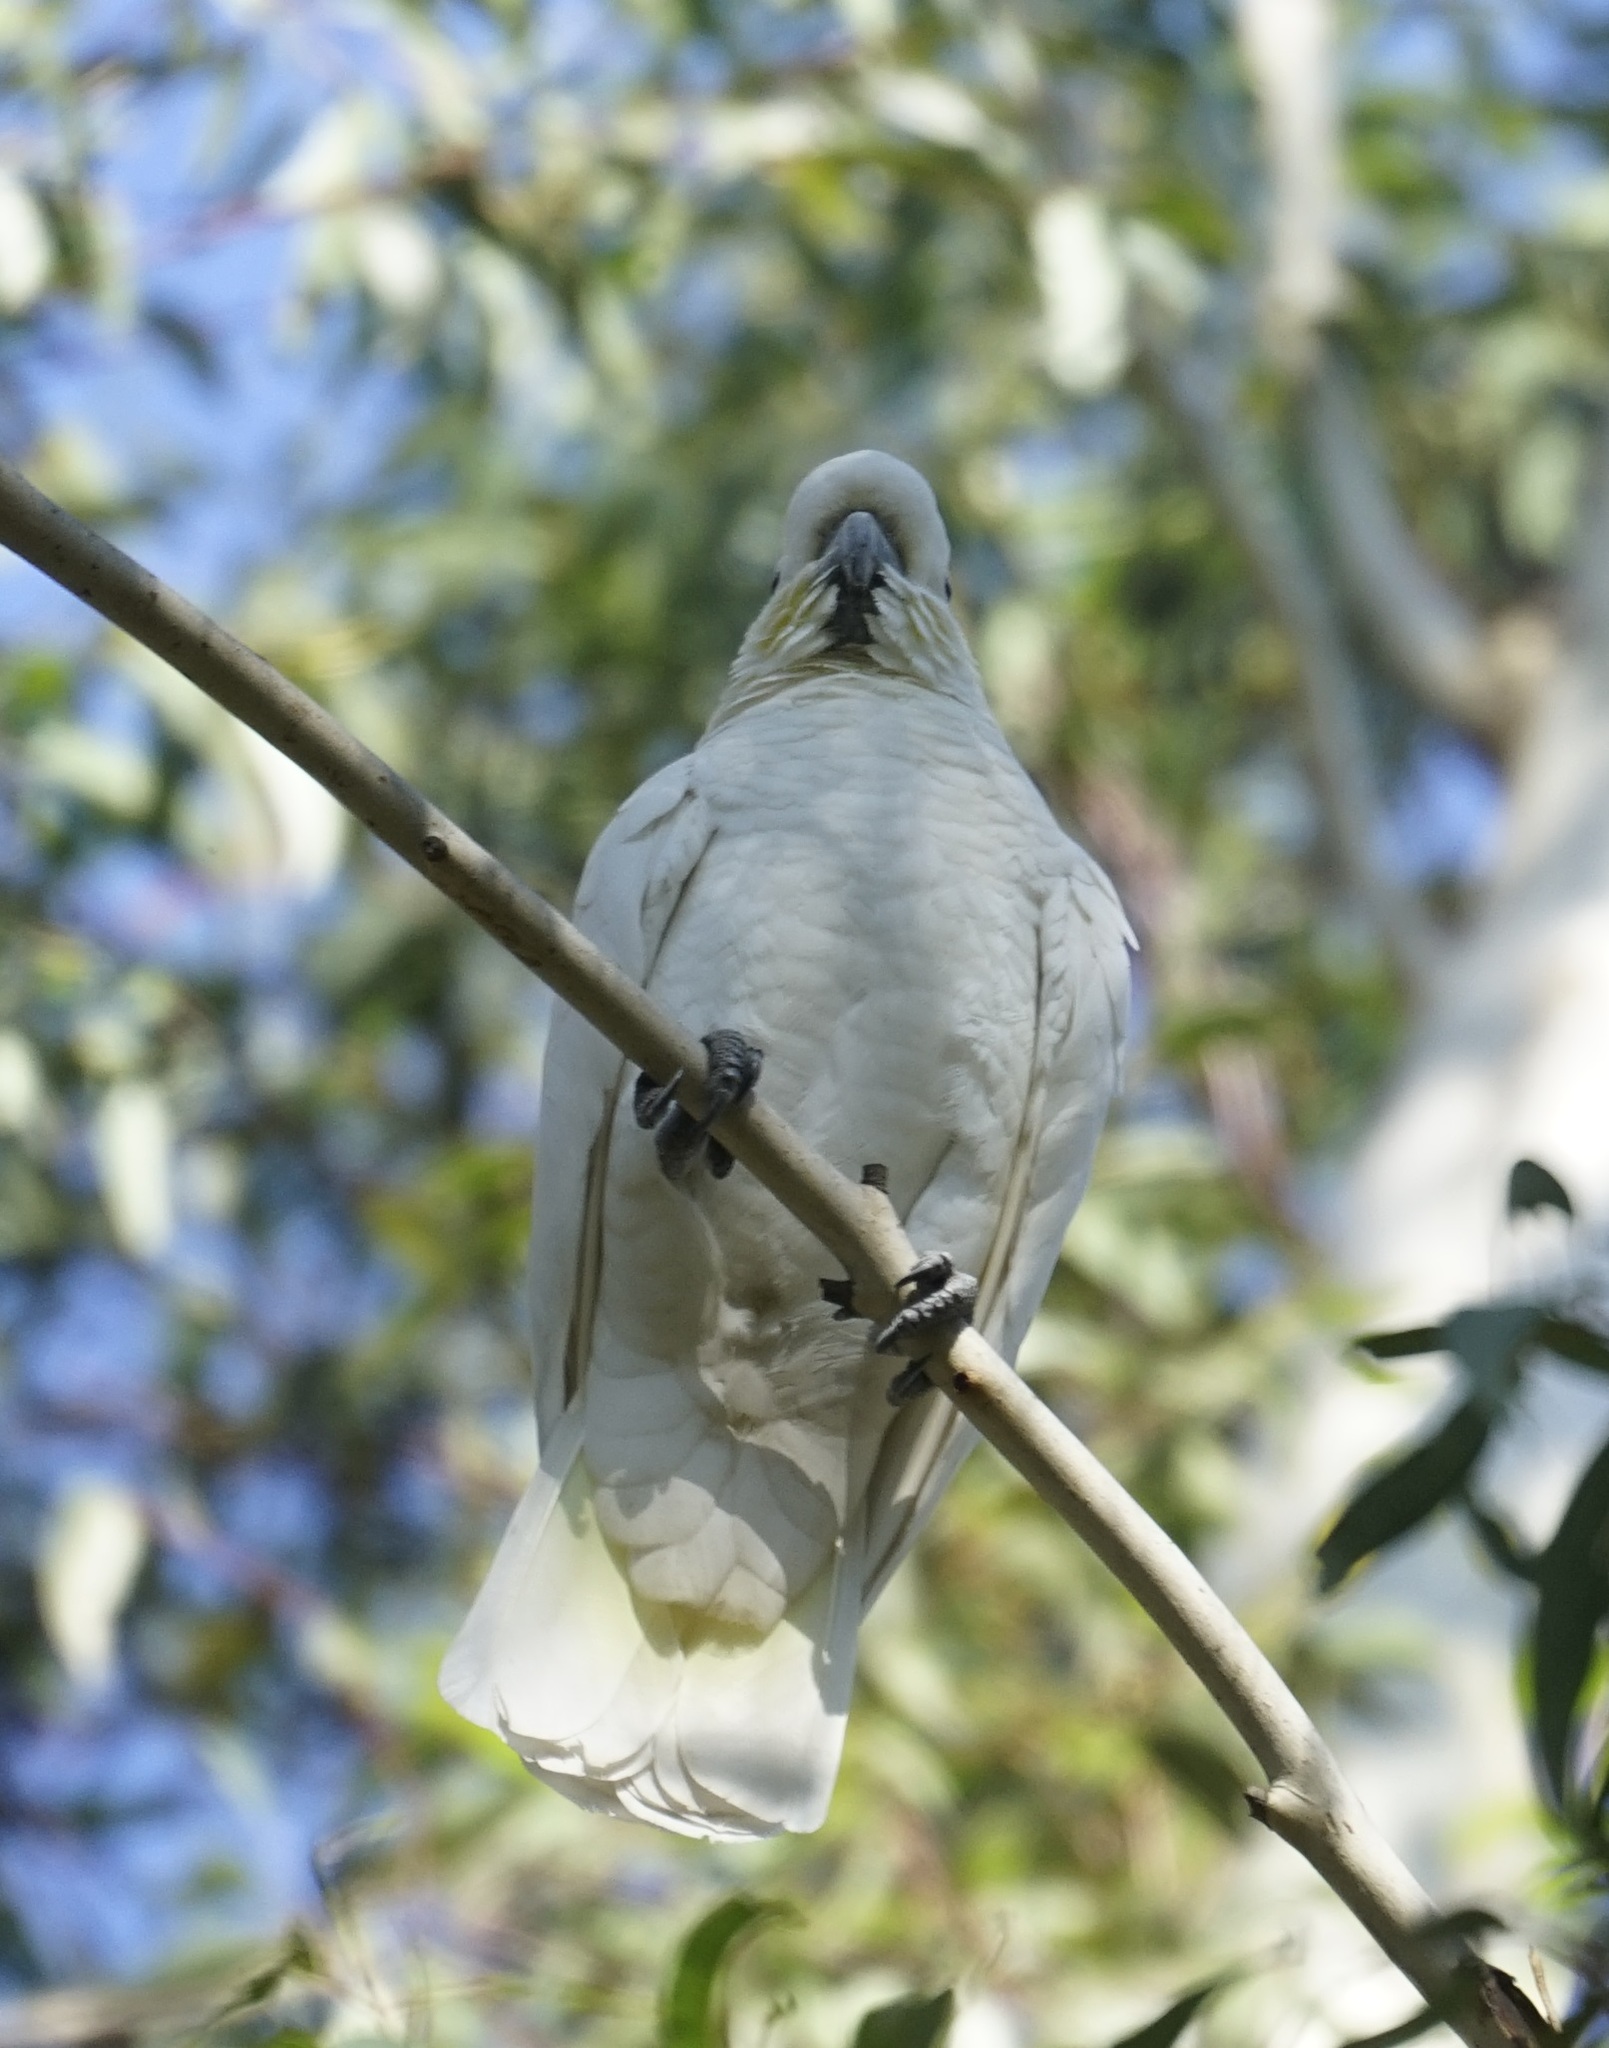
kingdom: Animalia
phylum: Chordata
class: Aves
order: Psittaciformes
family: Psittacidae
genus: Cacatua
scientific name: Cacatua galerita
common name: Sulphur-crested cockatoo
